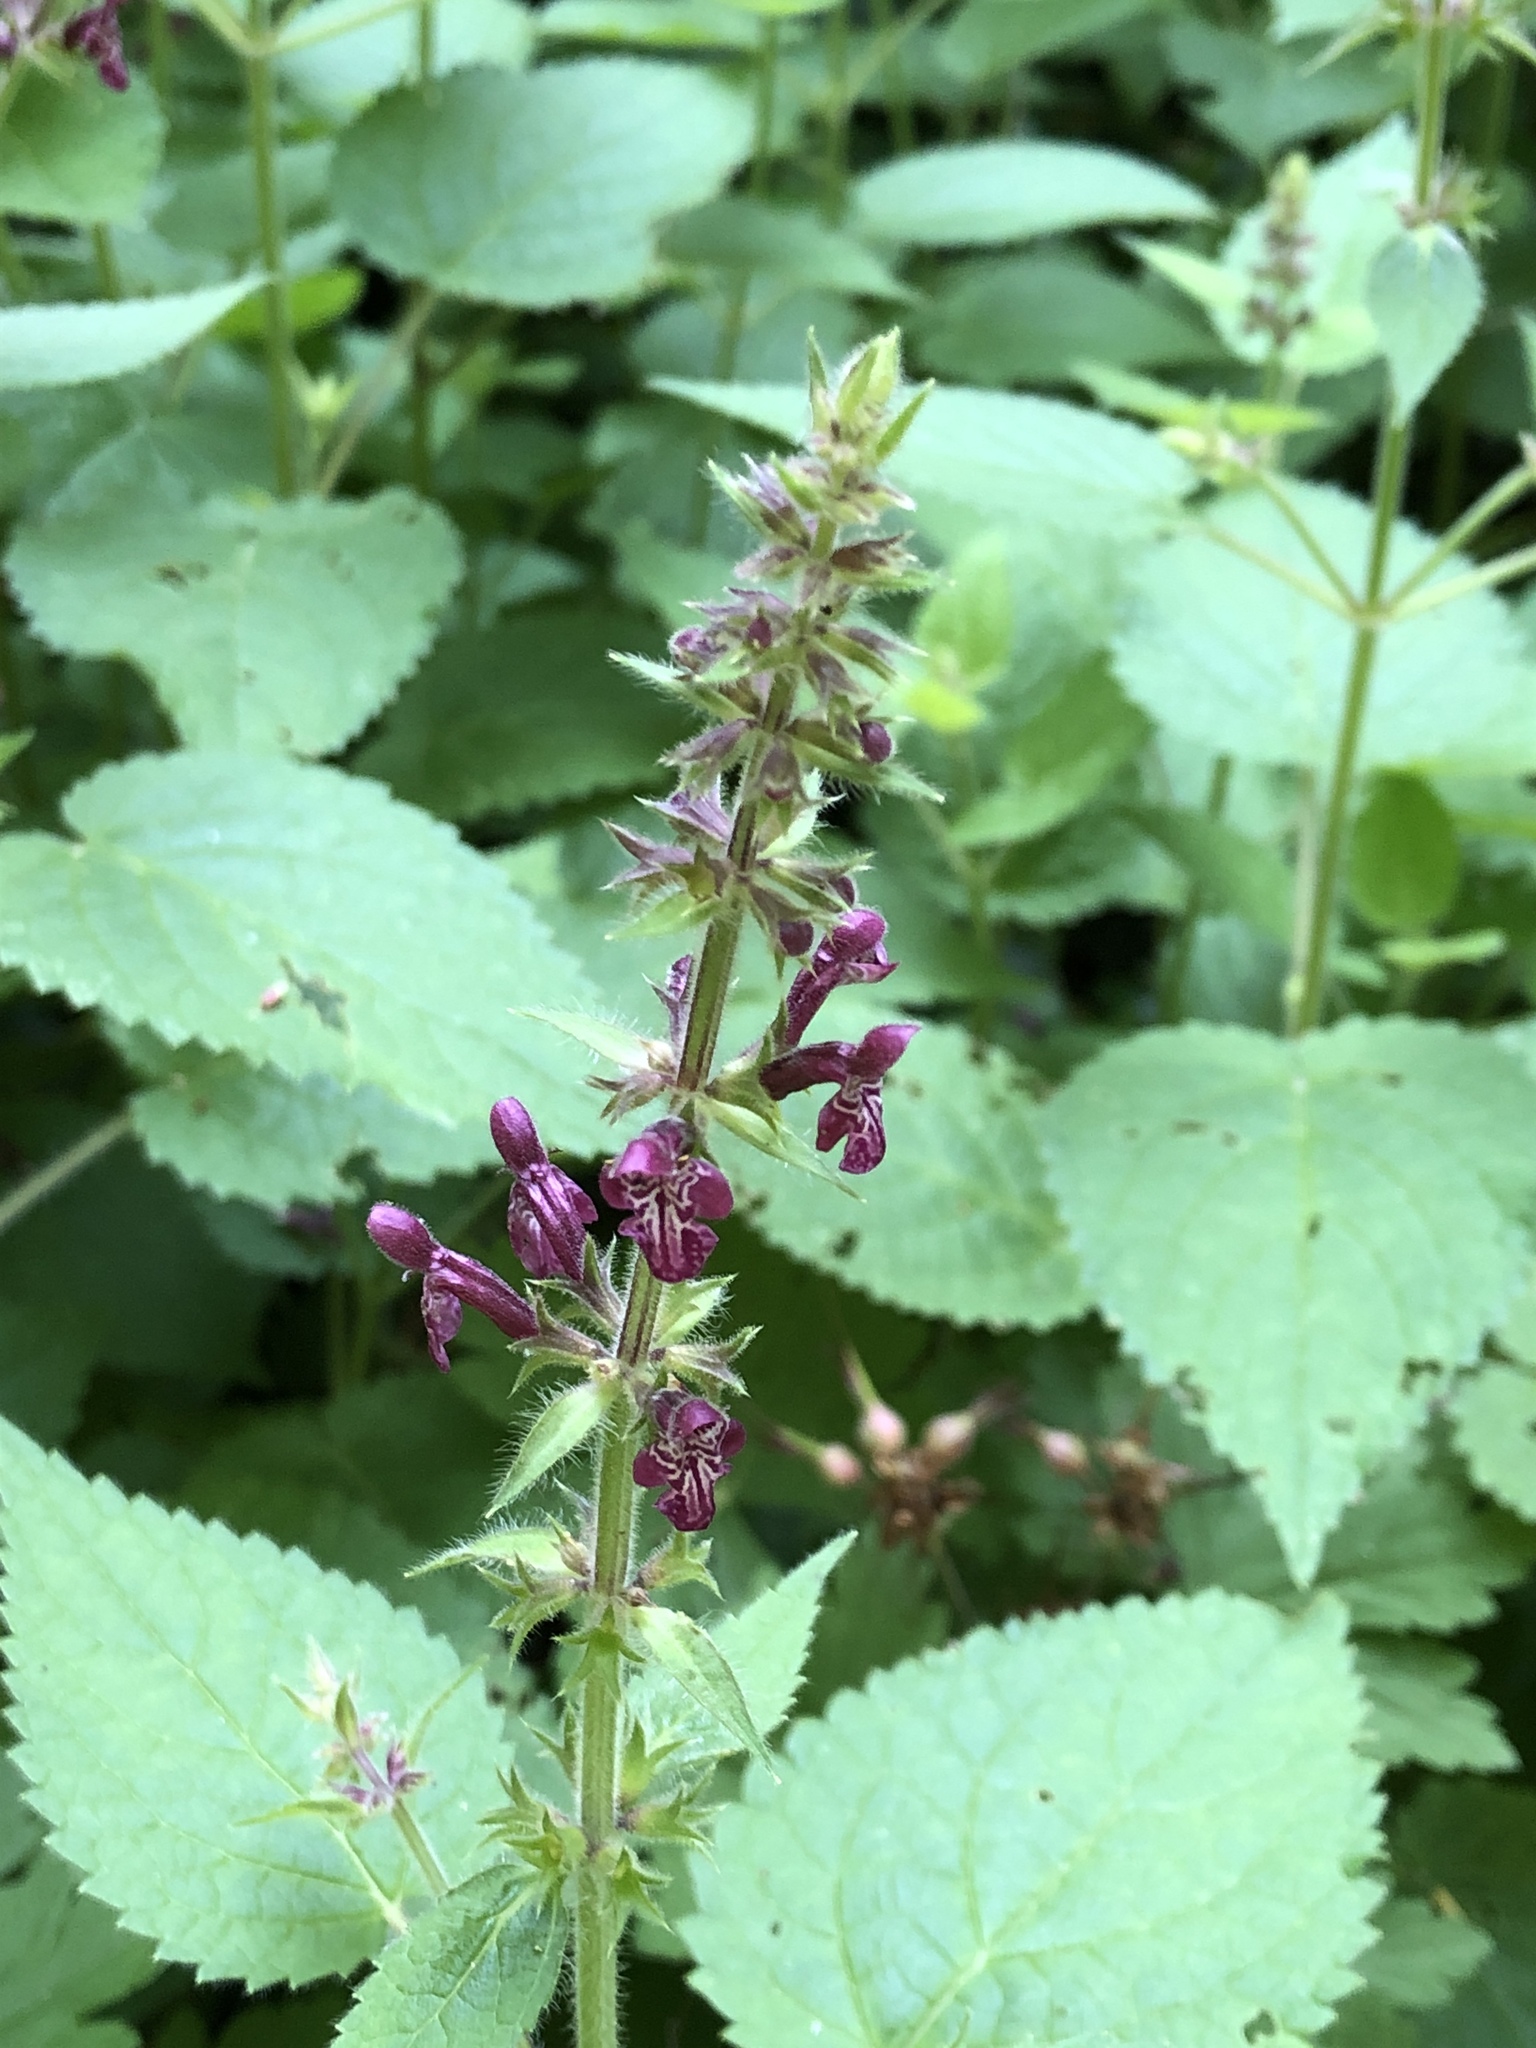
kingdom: Plantae
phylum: Tracheophyta
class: Magnoliopsida
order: Lamiales
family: Lamiaceae
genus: Stachys
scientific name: Stachys sylvatica
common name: Hedge woundwort
